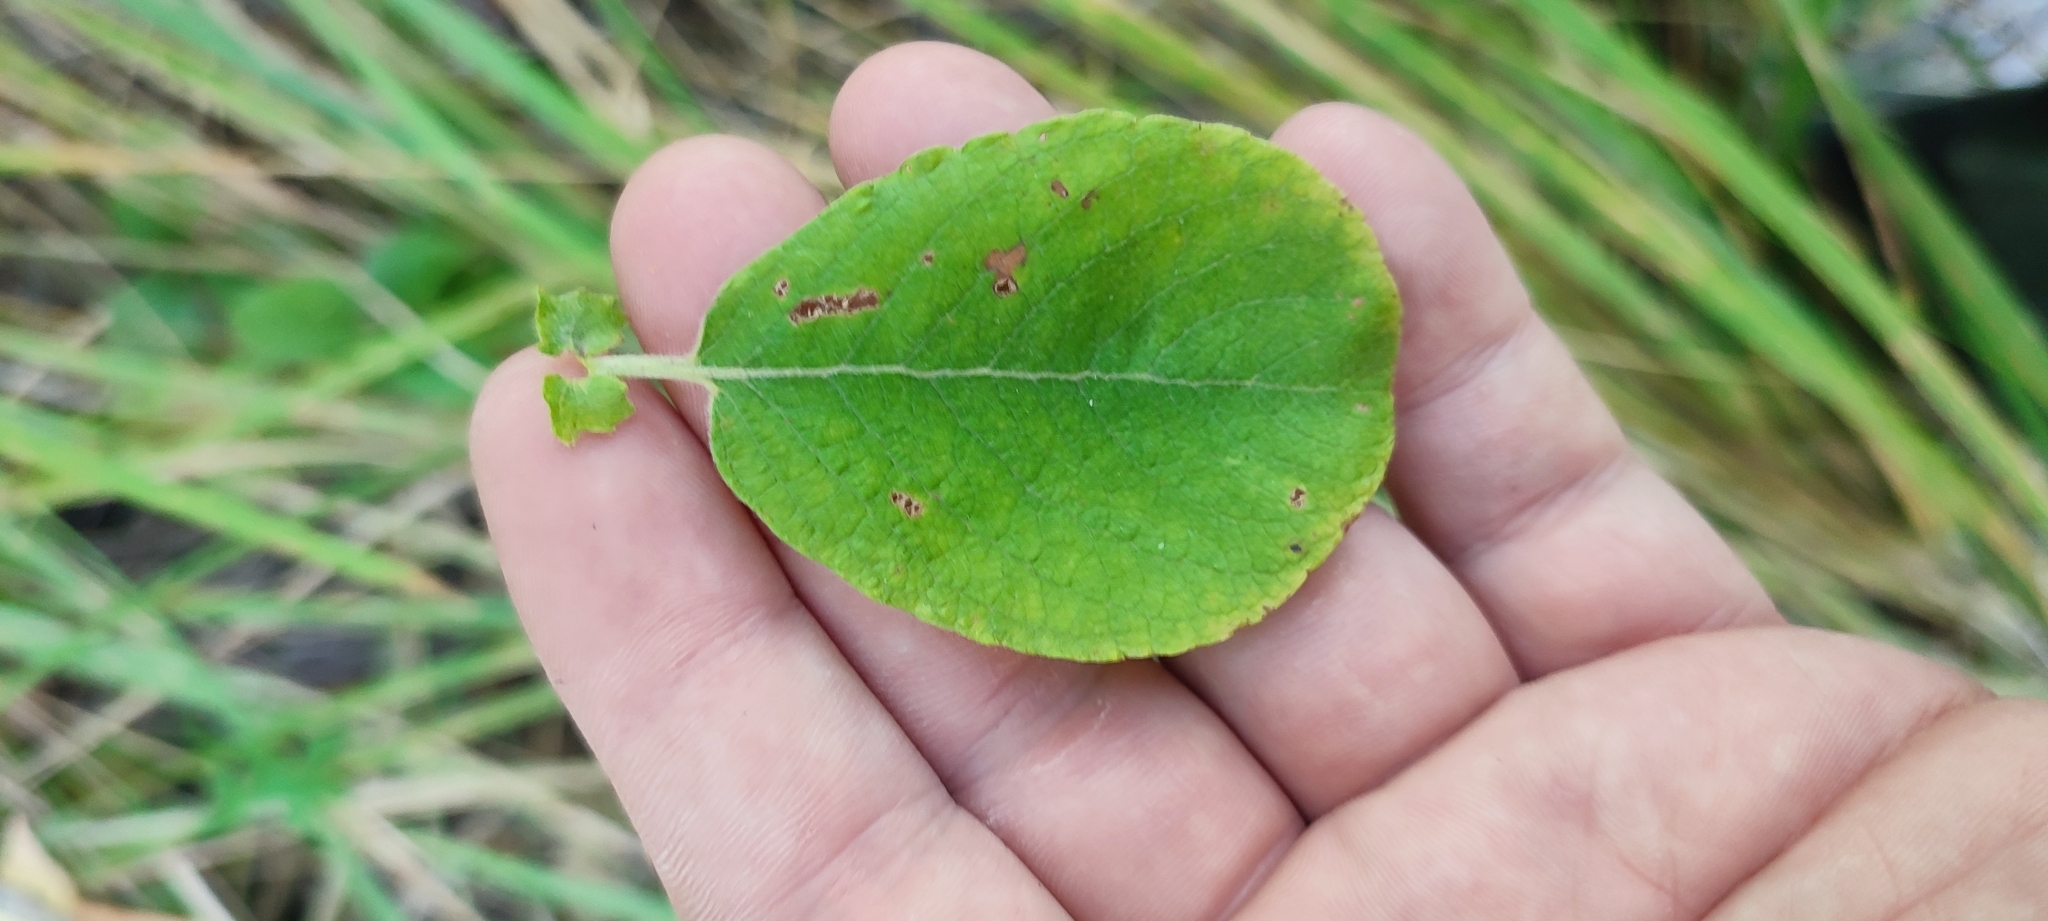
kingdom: Plantae
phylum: Tracheophyta
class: Magnoliopsida
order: Malpighiales
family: Salicaceae
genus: Salix
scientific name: Salix caprea
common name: Goat willow
